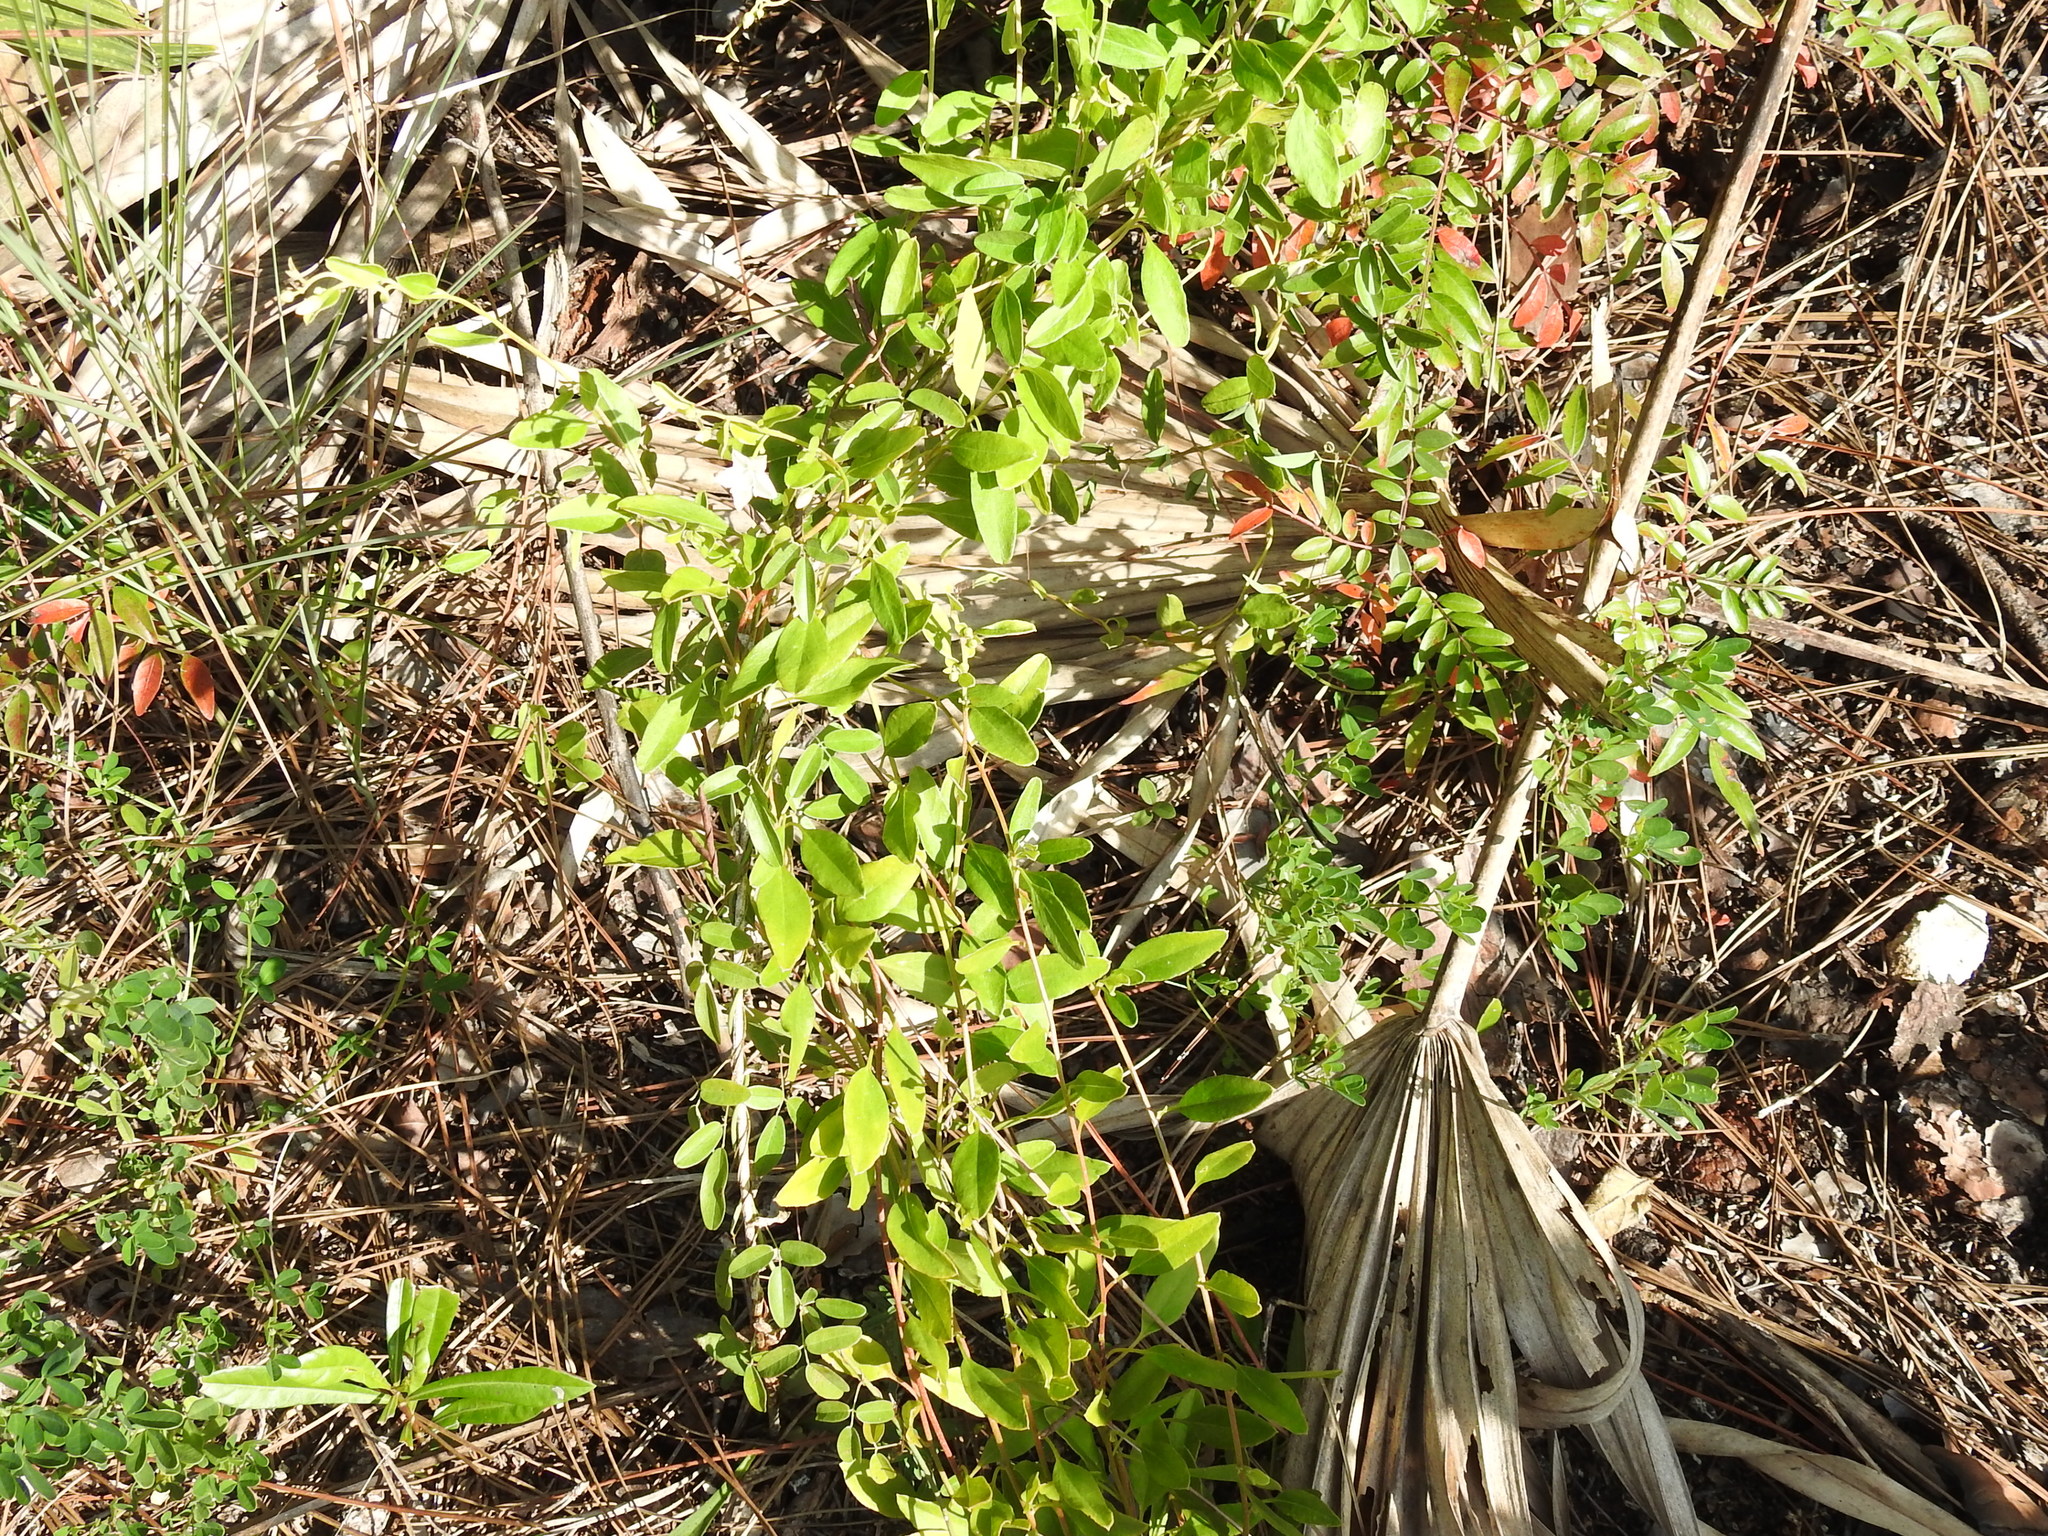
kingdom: Plantae
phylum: Tracheophyta
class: Magnoliopsida
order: Solanales
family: Convolvulaceae
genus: Jacquemontia
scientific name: Jacquemontia curtissii
